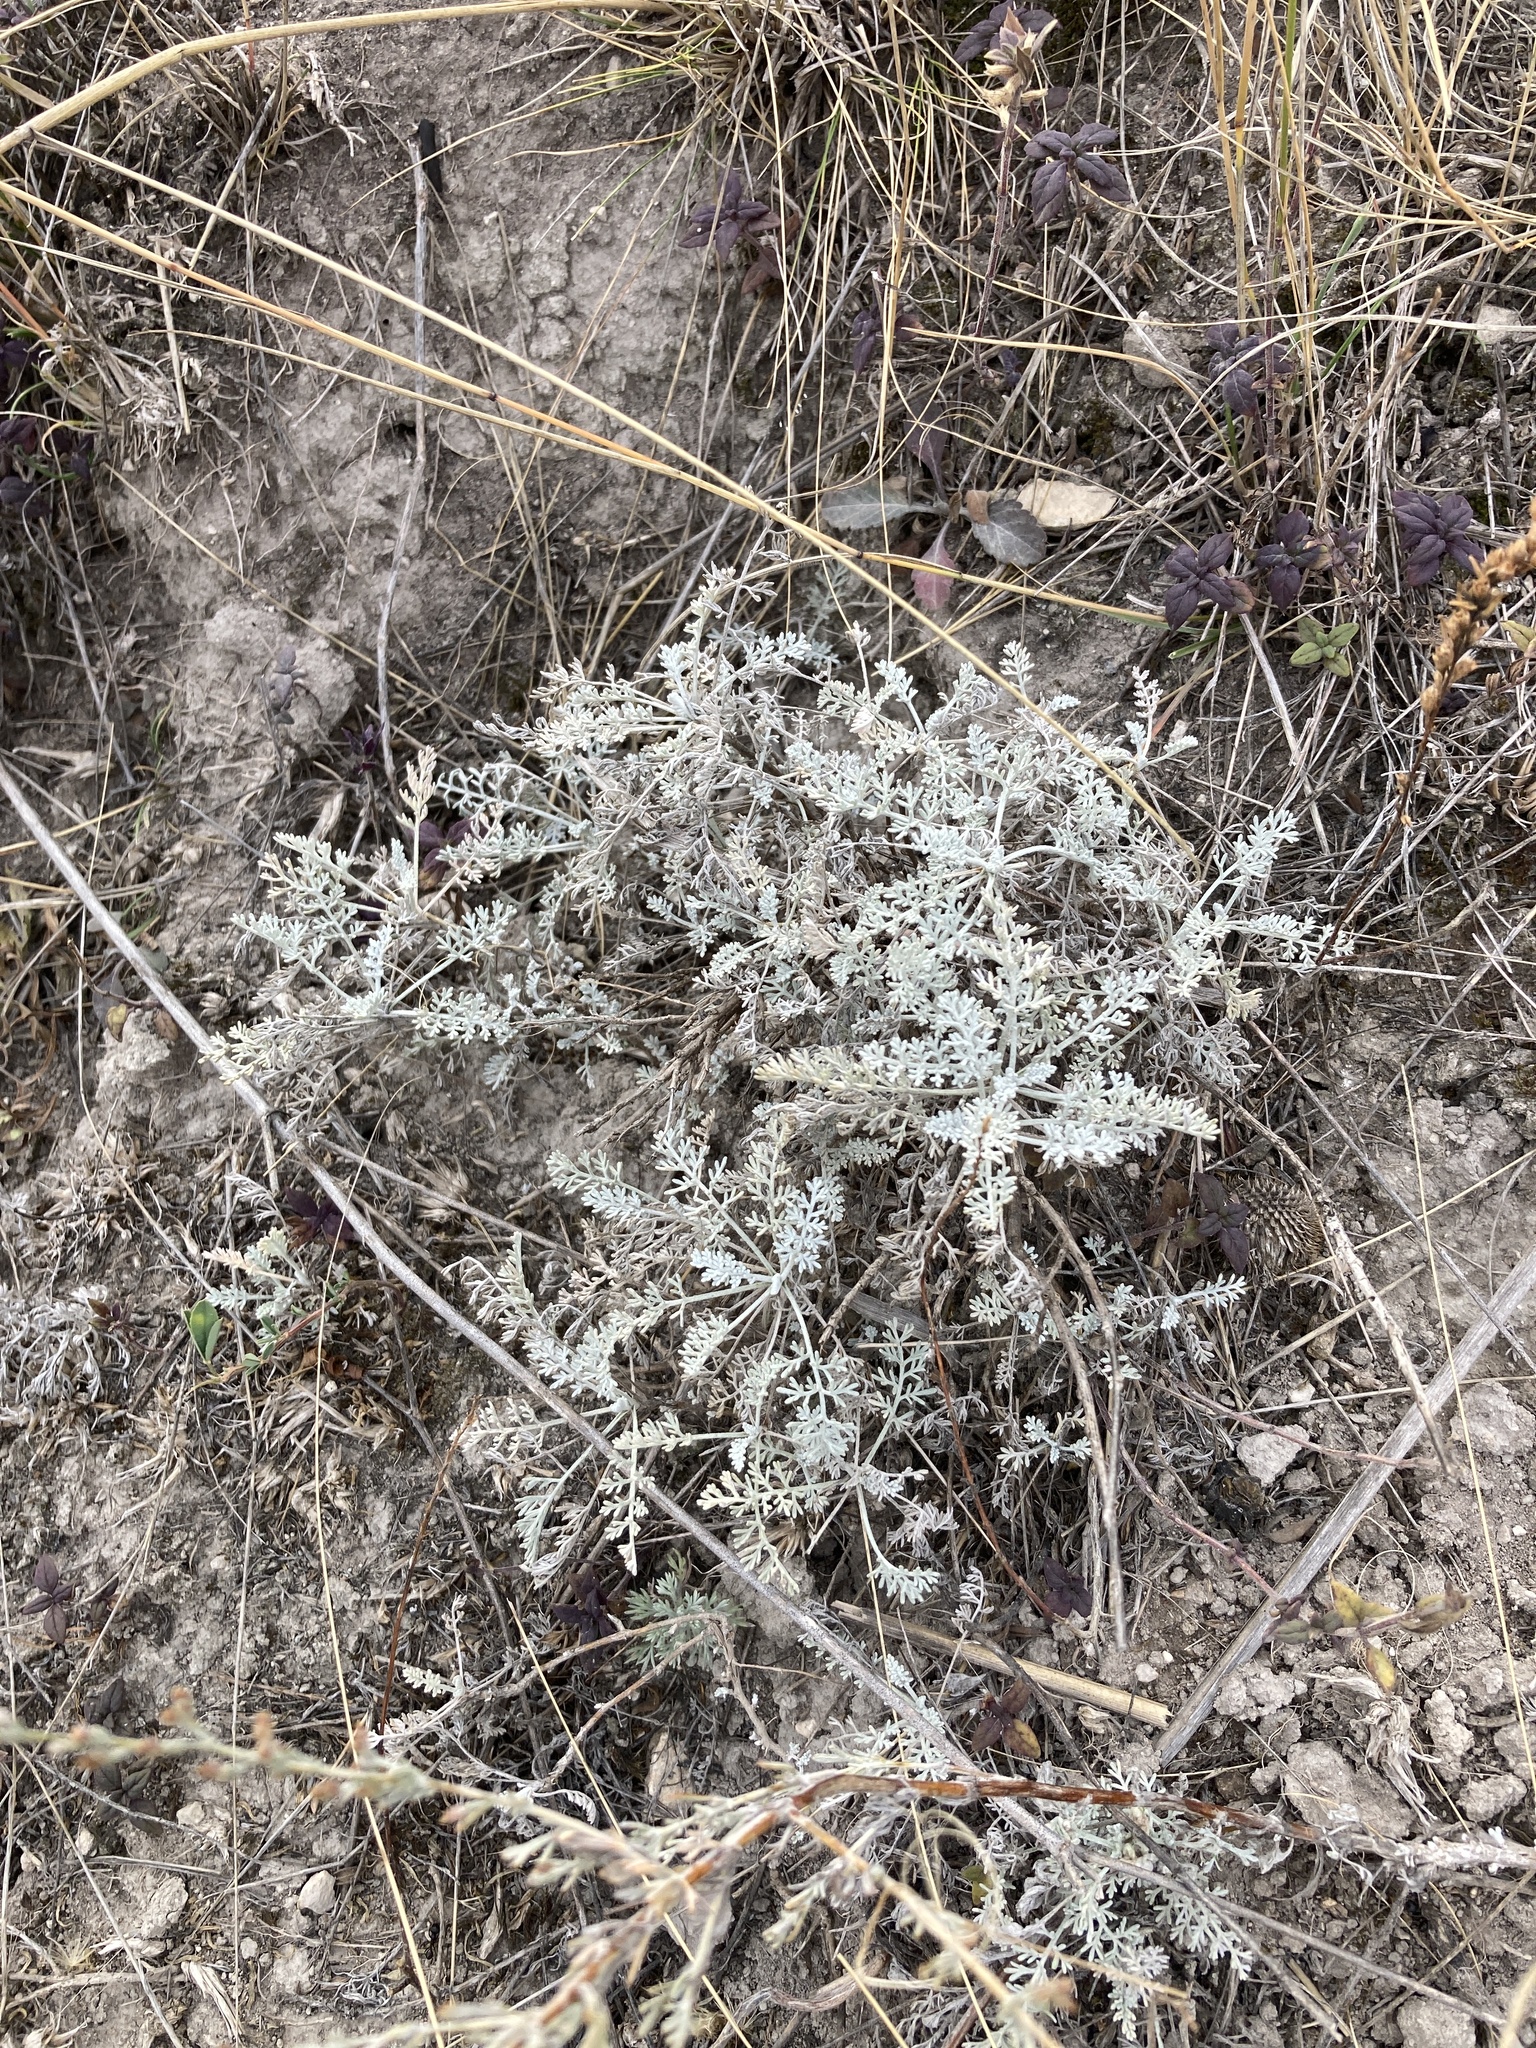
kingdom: Plantae
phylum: Tracheophyta
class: Magnoliopsida
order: Asterales
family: Asteraceae
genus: Artemisia
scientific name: Artemisia santonicum
